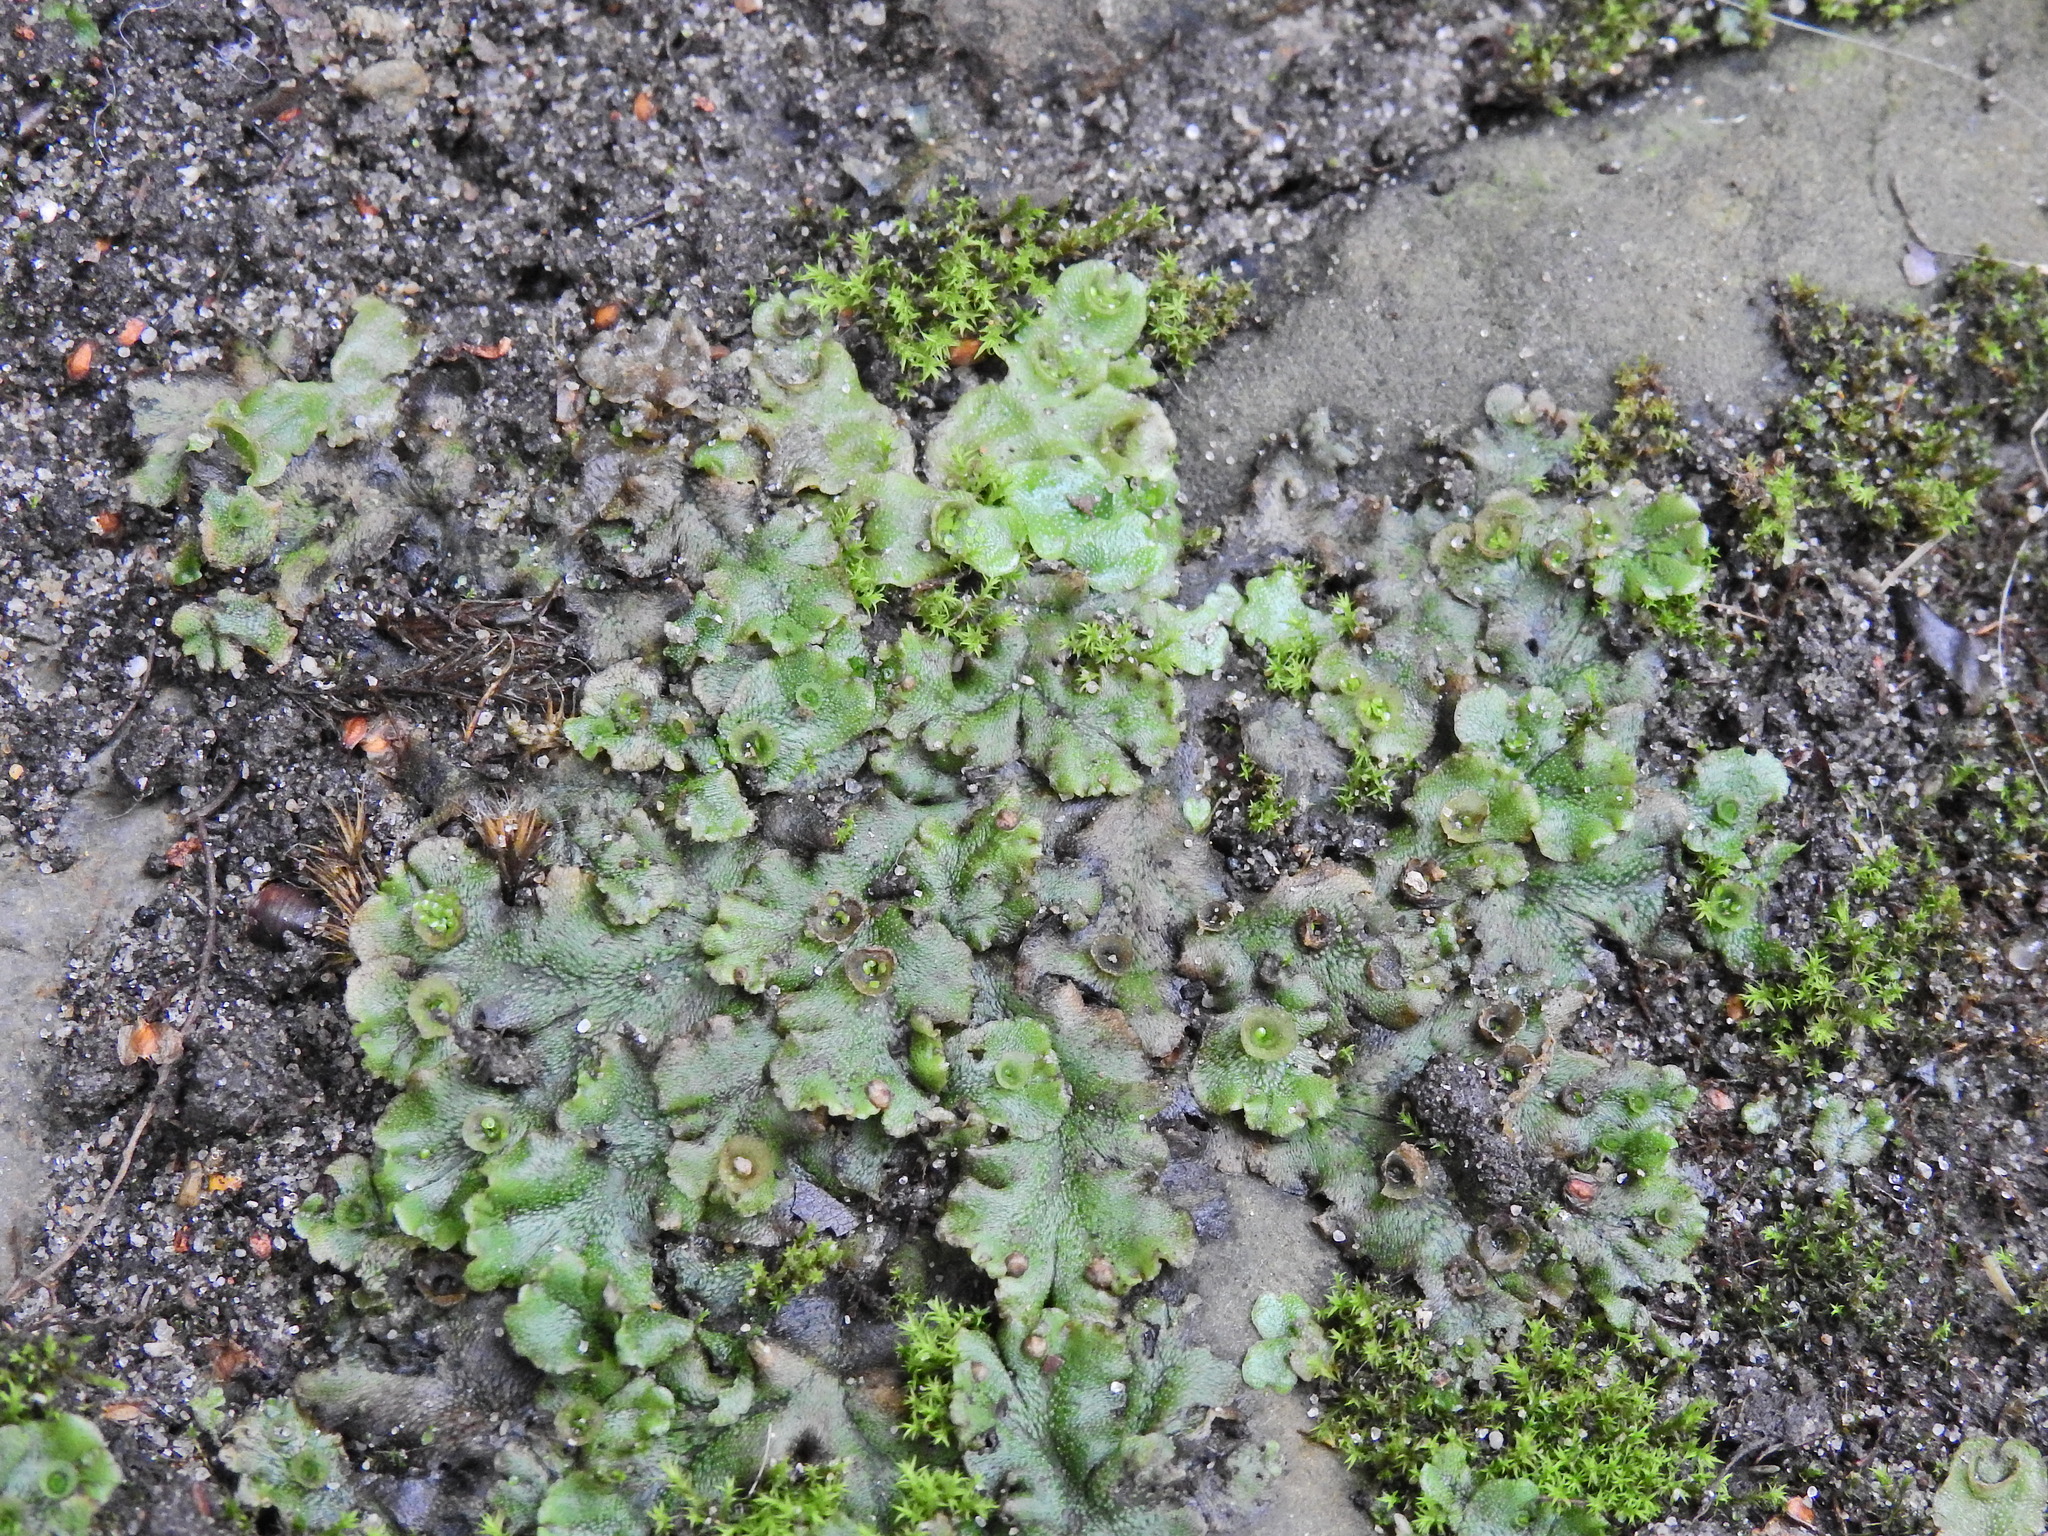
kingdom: Plantae
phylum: Marchantiophyta
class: Marchantiopsida
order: Marchantiales
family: Marchantiaceae
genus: Marchantia
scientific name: Marchantia polymorpha
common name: Common liverwort
